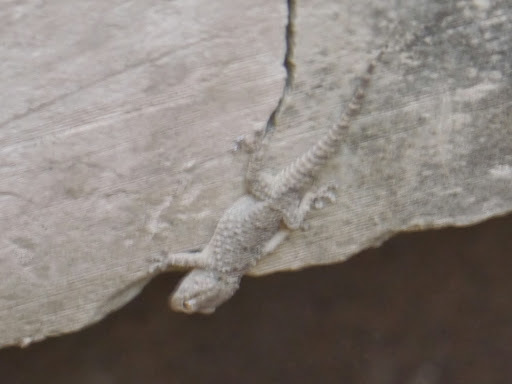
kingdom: Animalia
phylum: Chordata
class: Squamata
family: Phyllodactylidae
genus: Tarentola
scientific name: Tarentola mauritanica
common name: Moorish gecko
